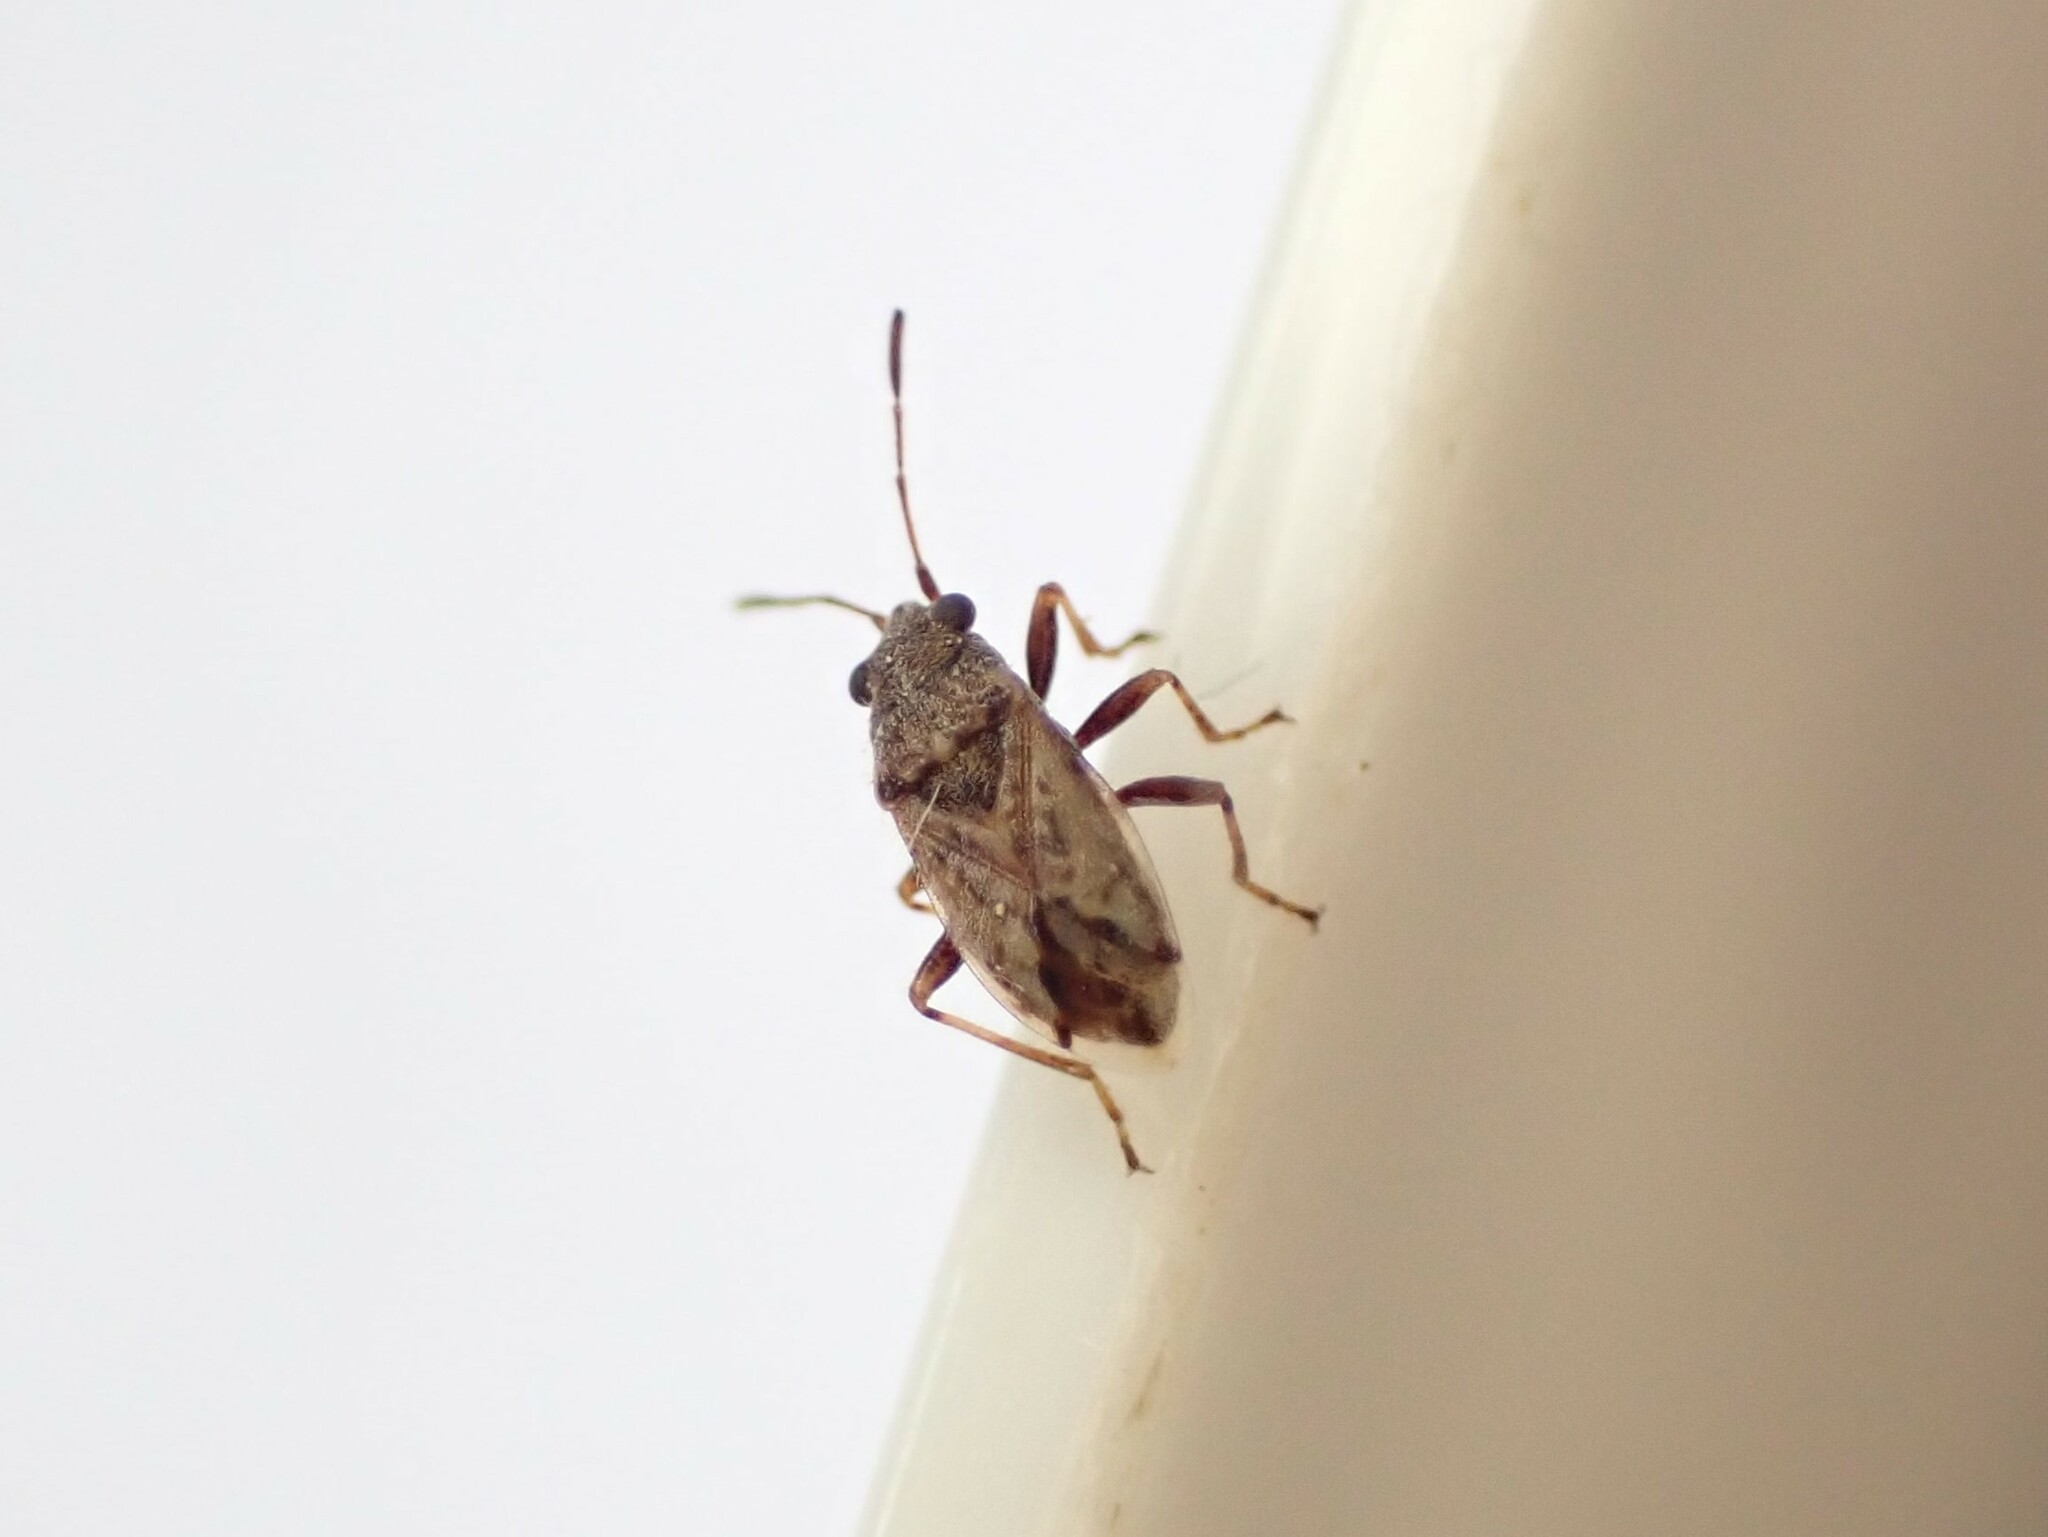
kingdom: Animalia
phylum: Arthropoda
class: Insecta
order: Hemiptera
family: Lygaeidae
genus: Nysius
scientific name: Nysius huttoni
